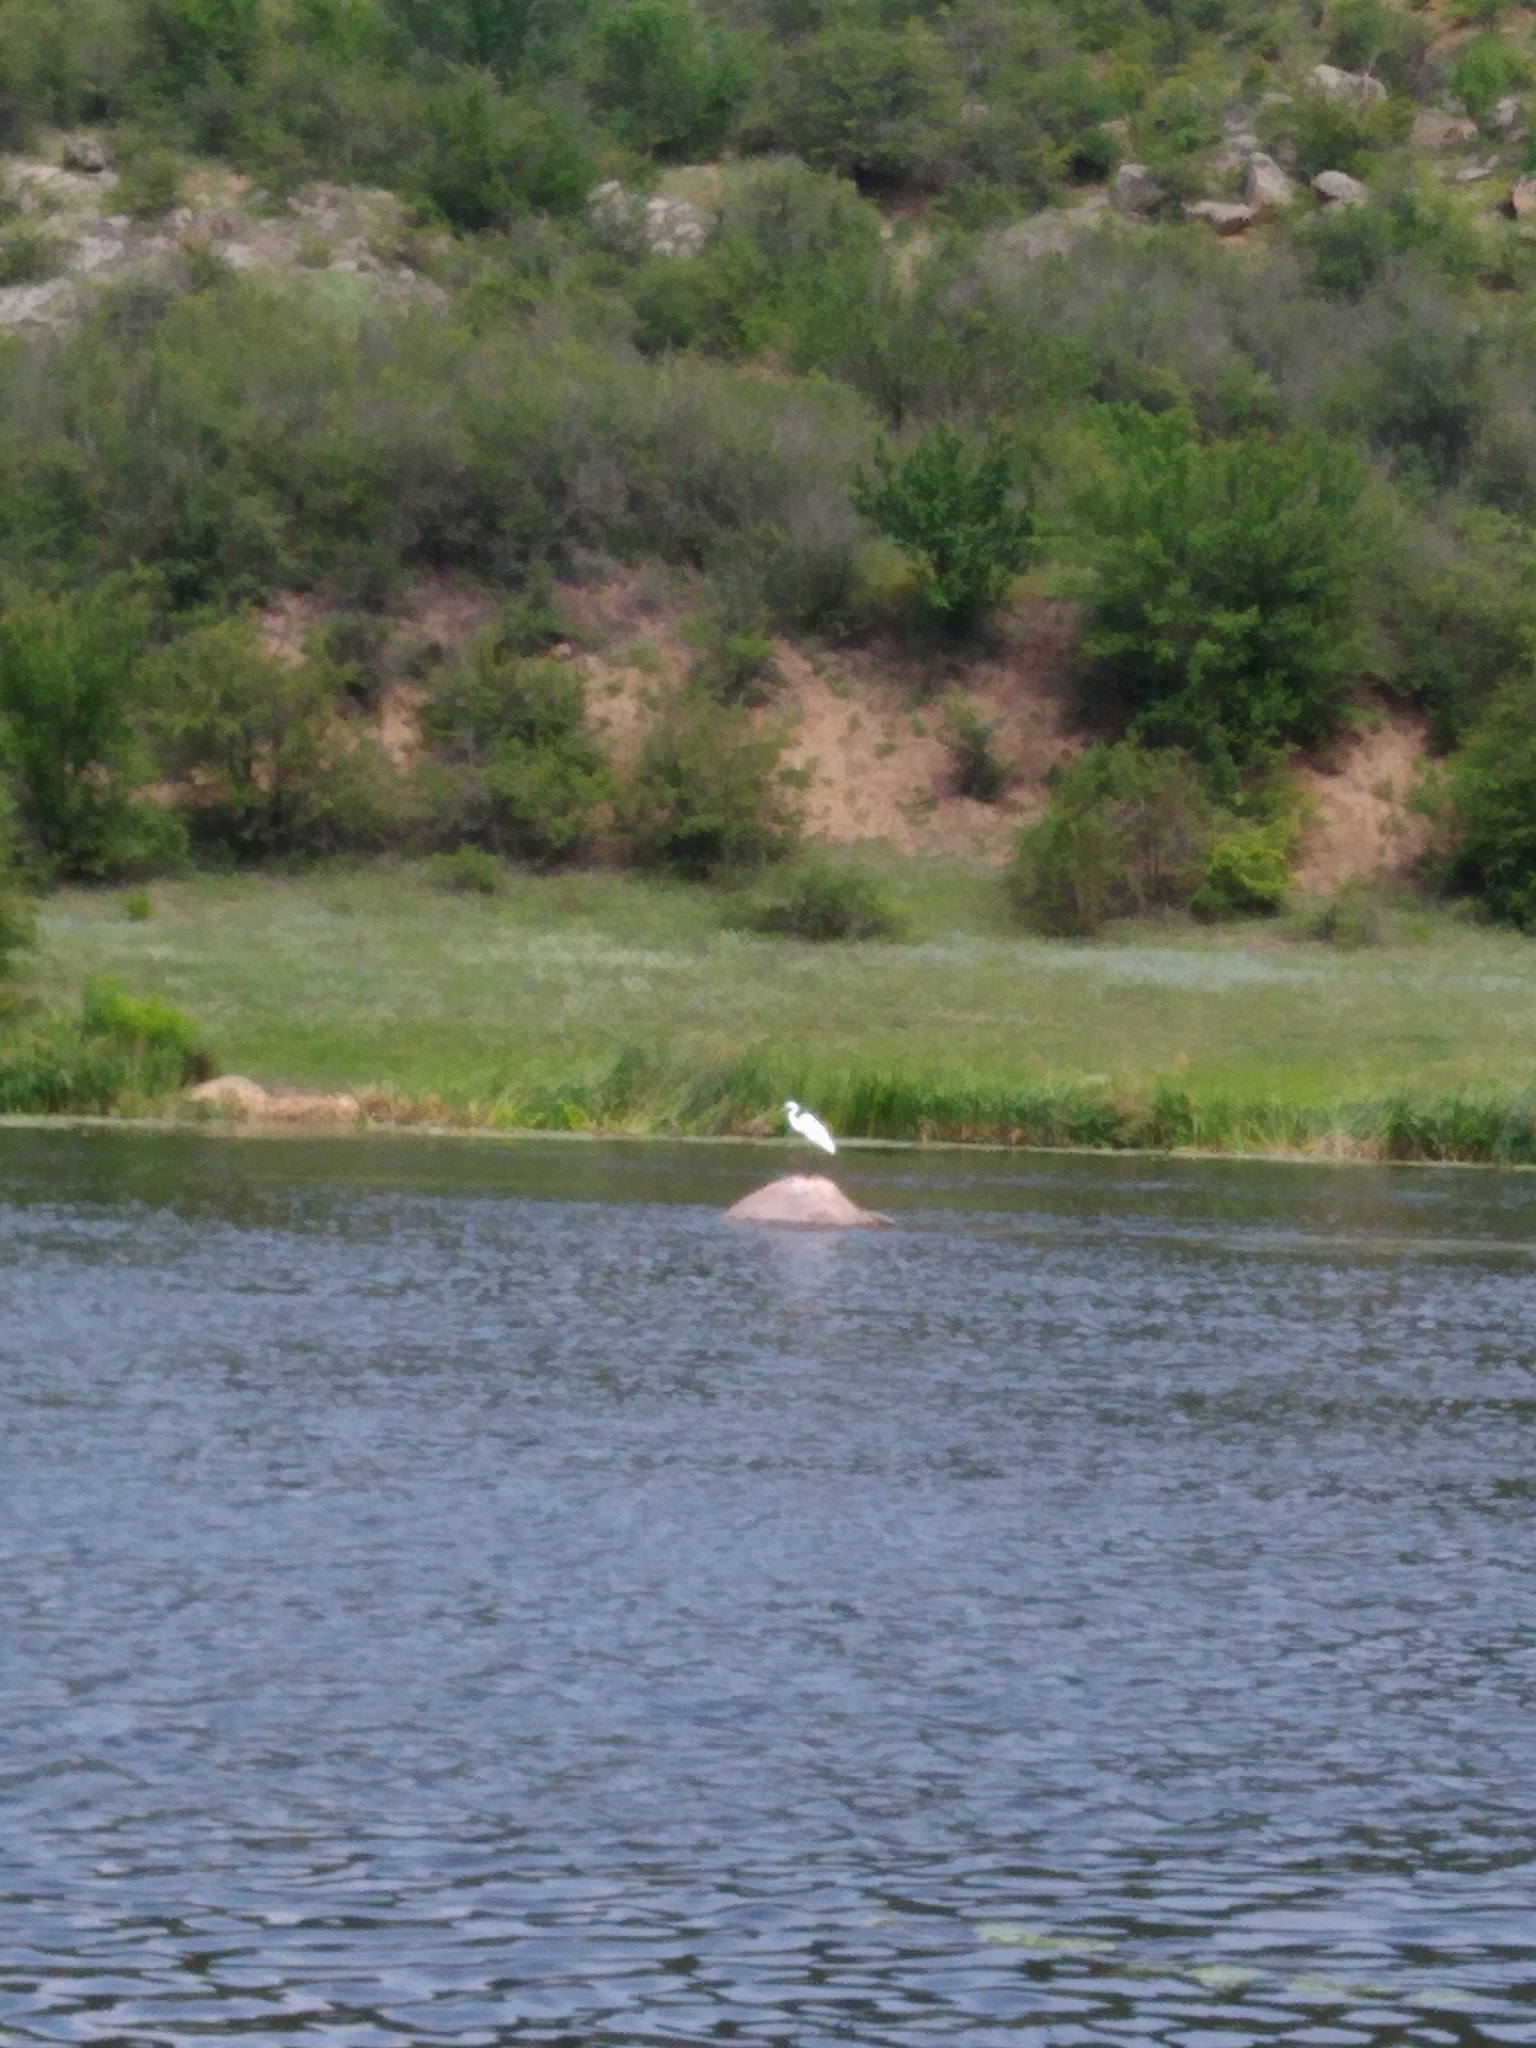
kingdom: Animalia
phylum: Chordata
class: Aves
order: Pelecaniformes
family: Ardeidae
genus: Ardea
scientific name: Ardea alba
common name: Great egret
